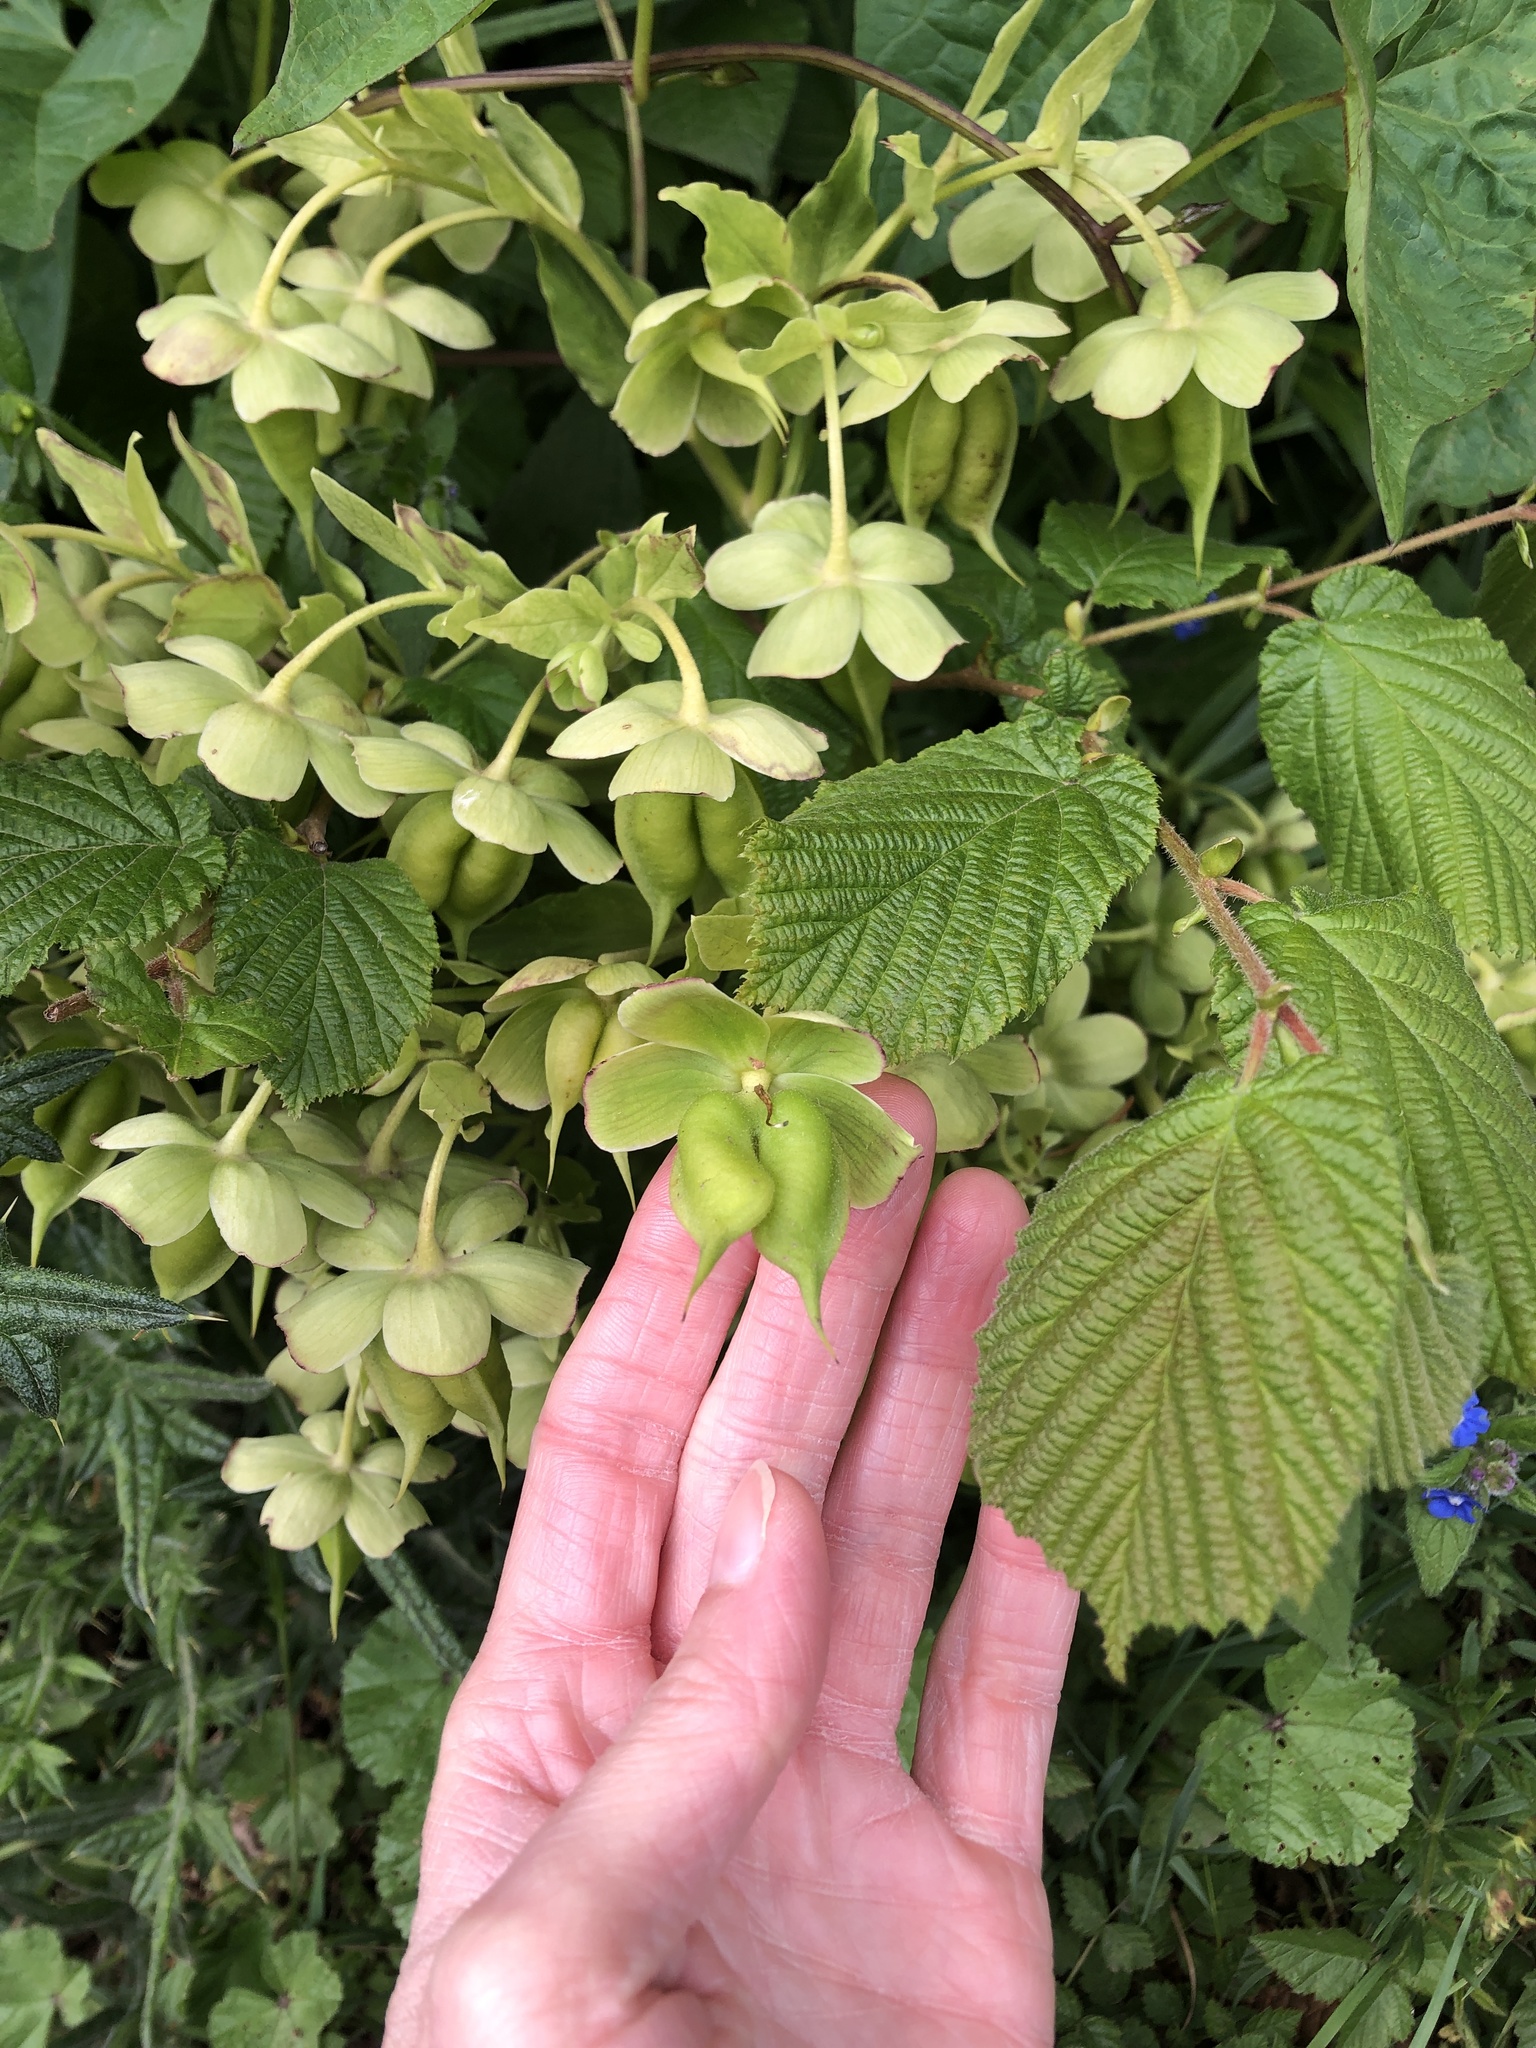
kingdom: Plantae
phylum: Tracheophyta
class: Magnoliopsida
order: Ranunculales
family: Ranunculaceae
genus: Helleborus
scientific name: Helleborus foetidus
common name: Stinking hellebore
